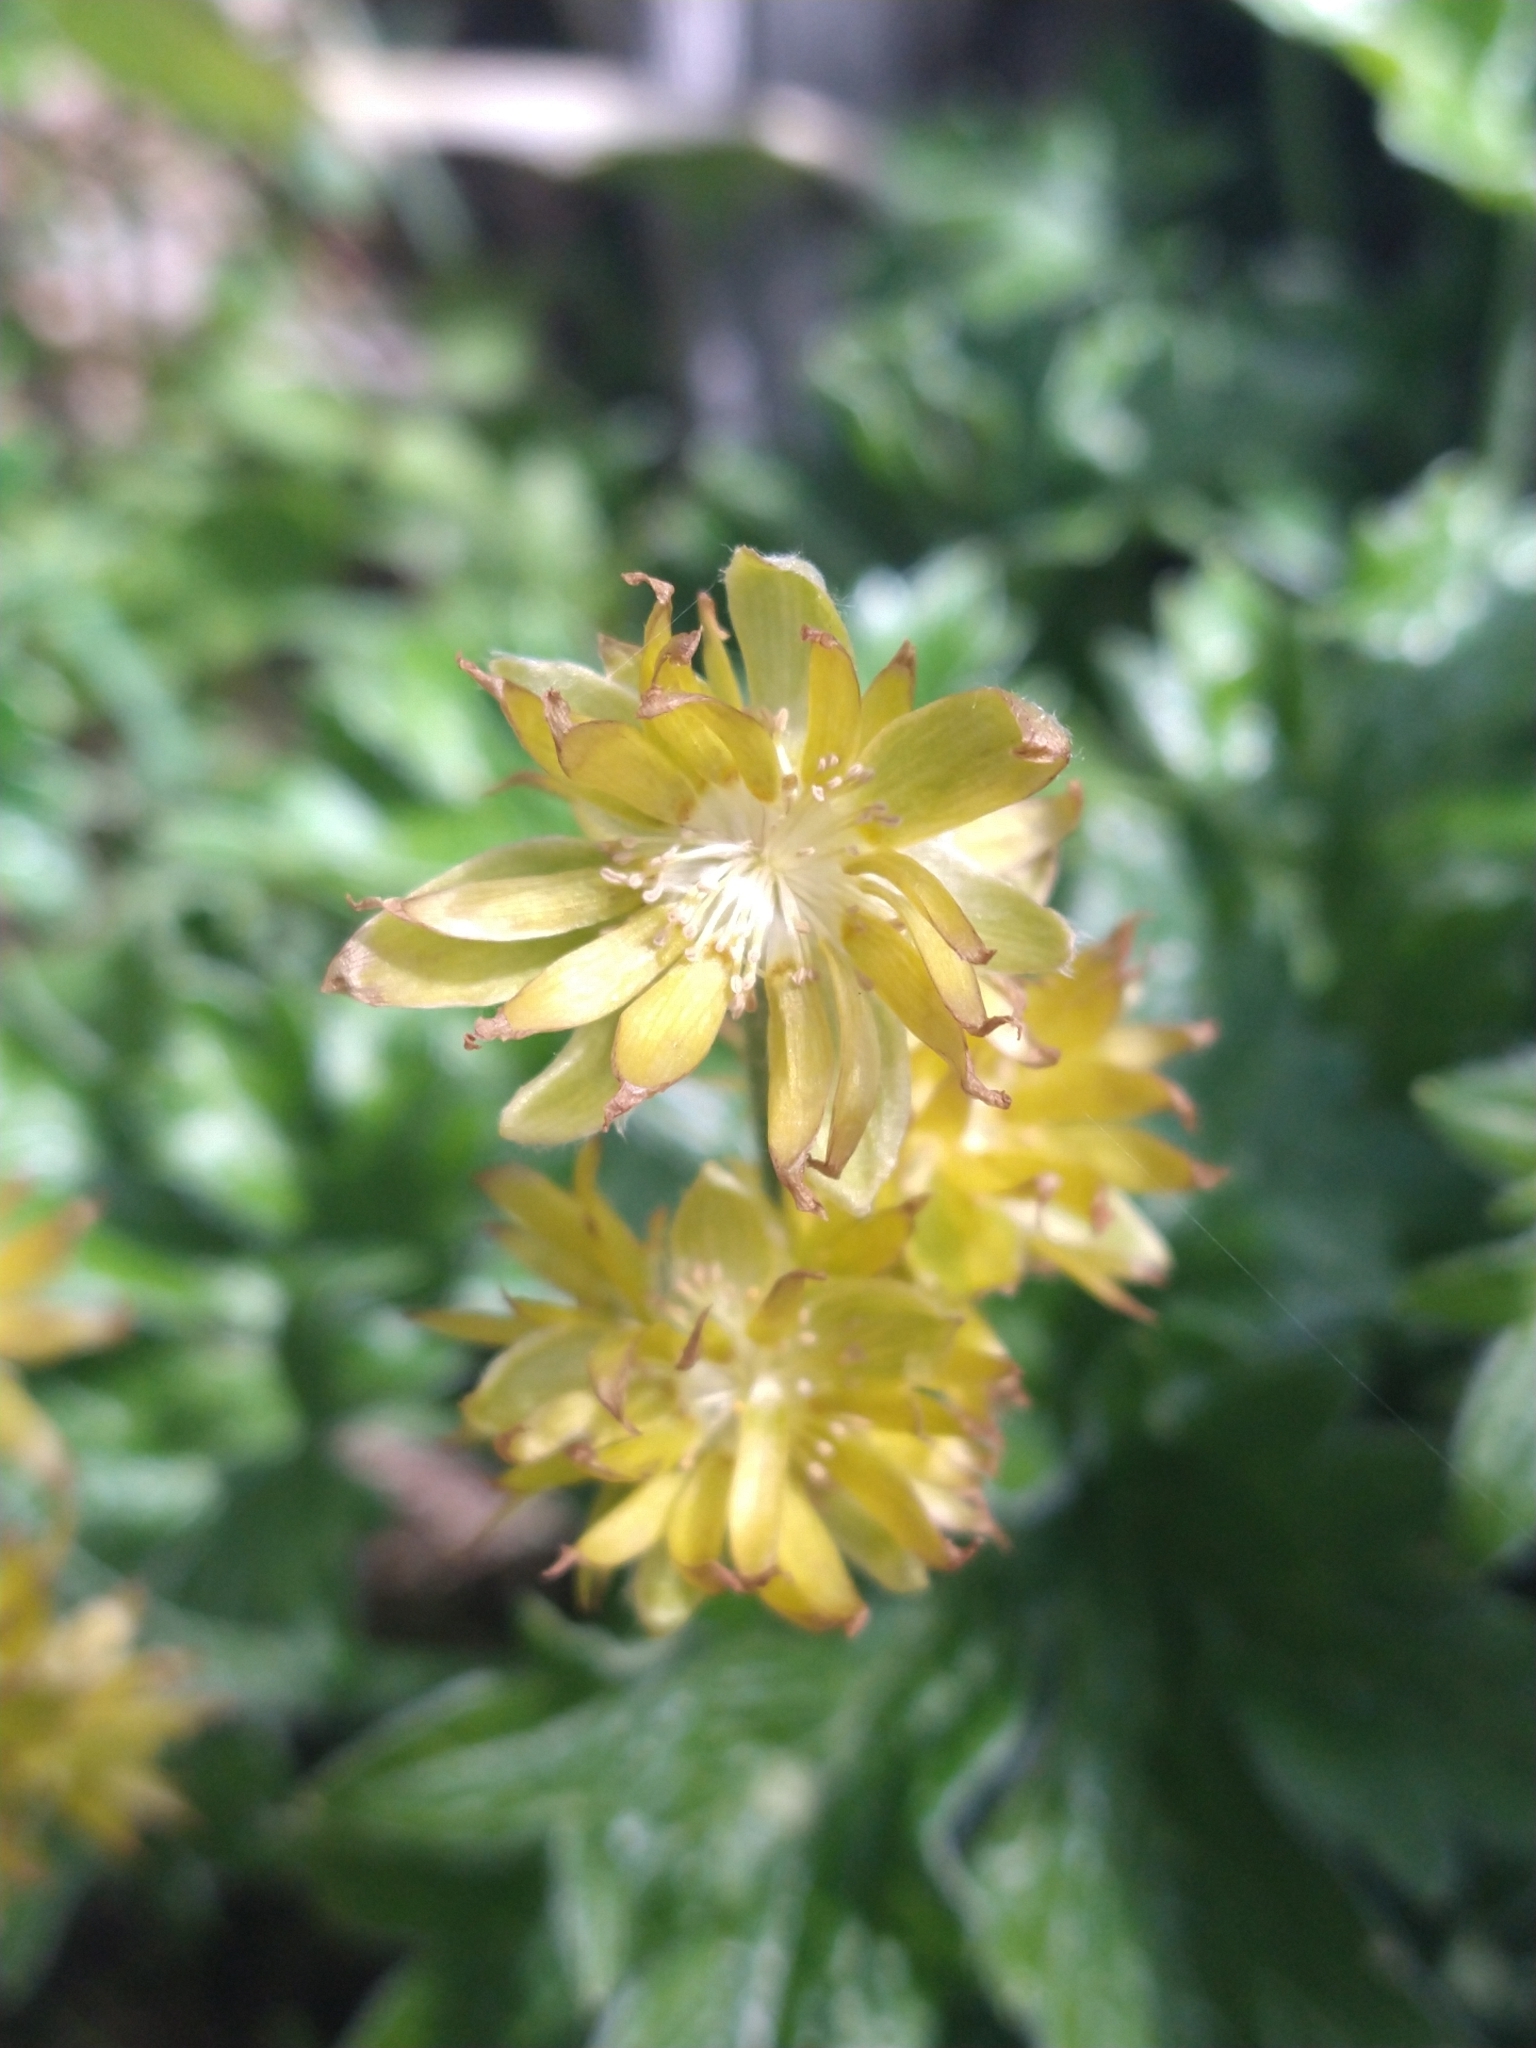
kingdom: Plantae
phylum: Tracheophyta
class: Magnoliopsida
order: Ranunculales
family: Ranunculaceae
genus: Hamadryas
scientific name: Hamadryas magellanica
